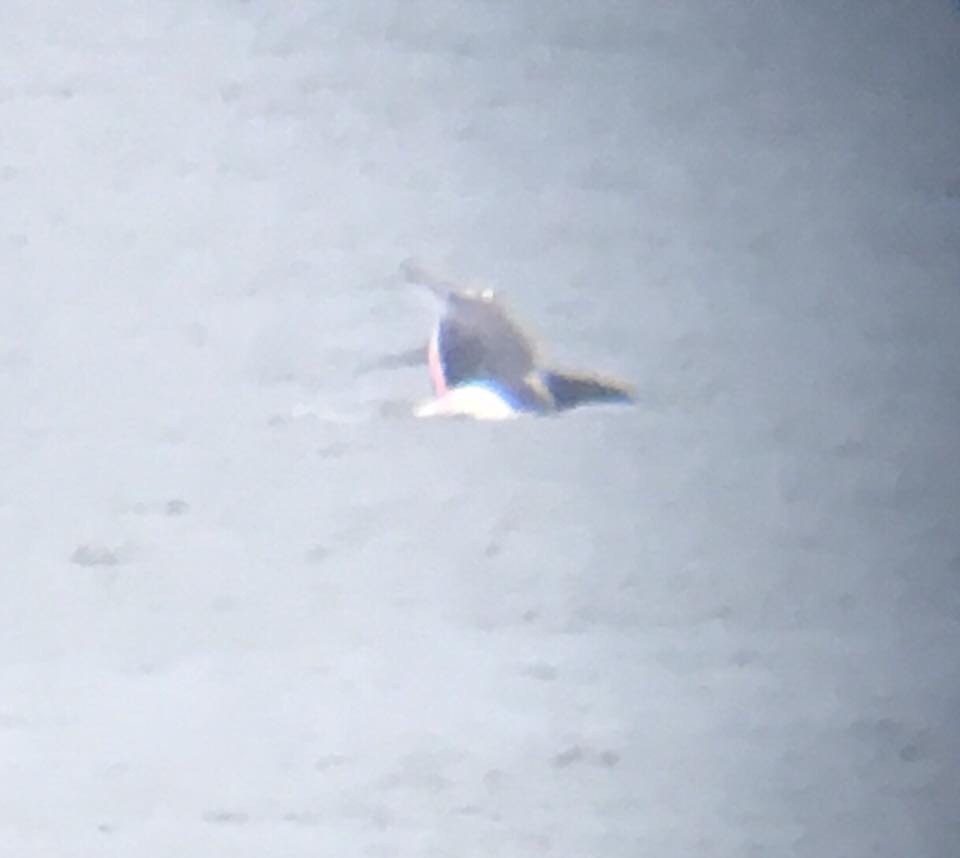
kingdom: Animalia
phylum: Chordata
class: Mammalia
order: Cetacea
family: Delphinidae
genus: Orcinus
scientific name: Orcinus orca
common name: Killer whale
